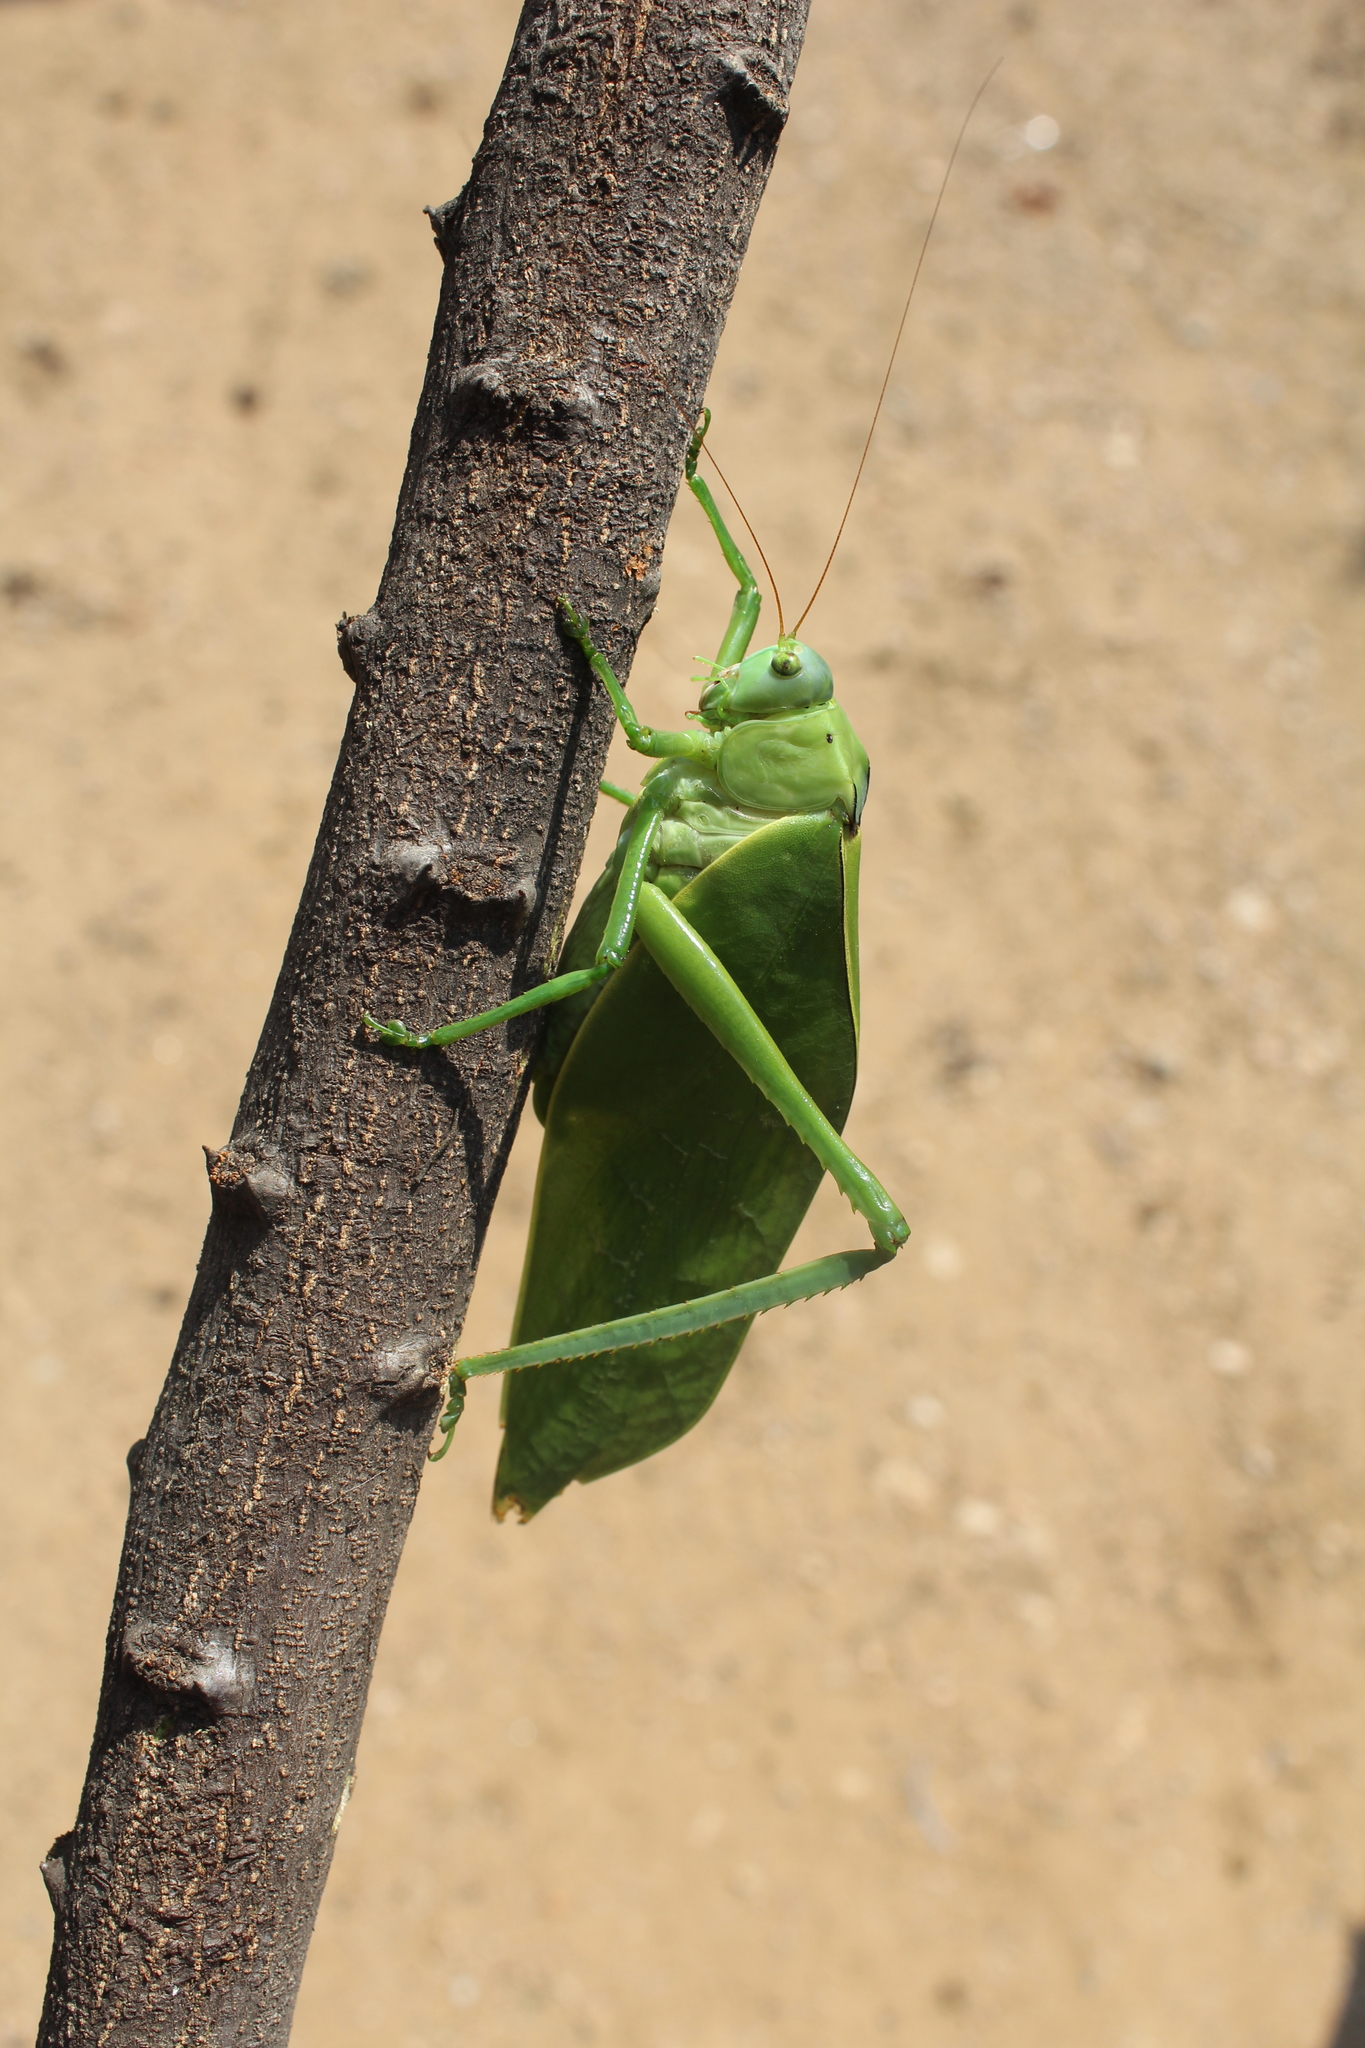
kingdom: Animalia
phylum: Arthropoda
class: Insecta
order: Orthoptera
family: Tettigoniidae
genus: Stilpnochlora
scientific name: Stilpnochlora azteca
